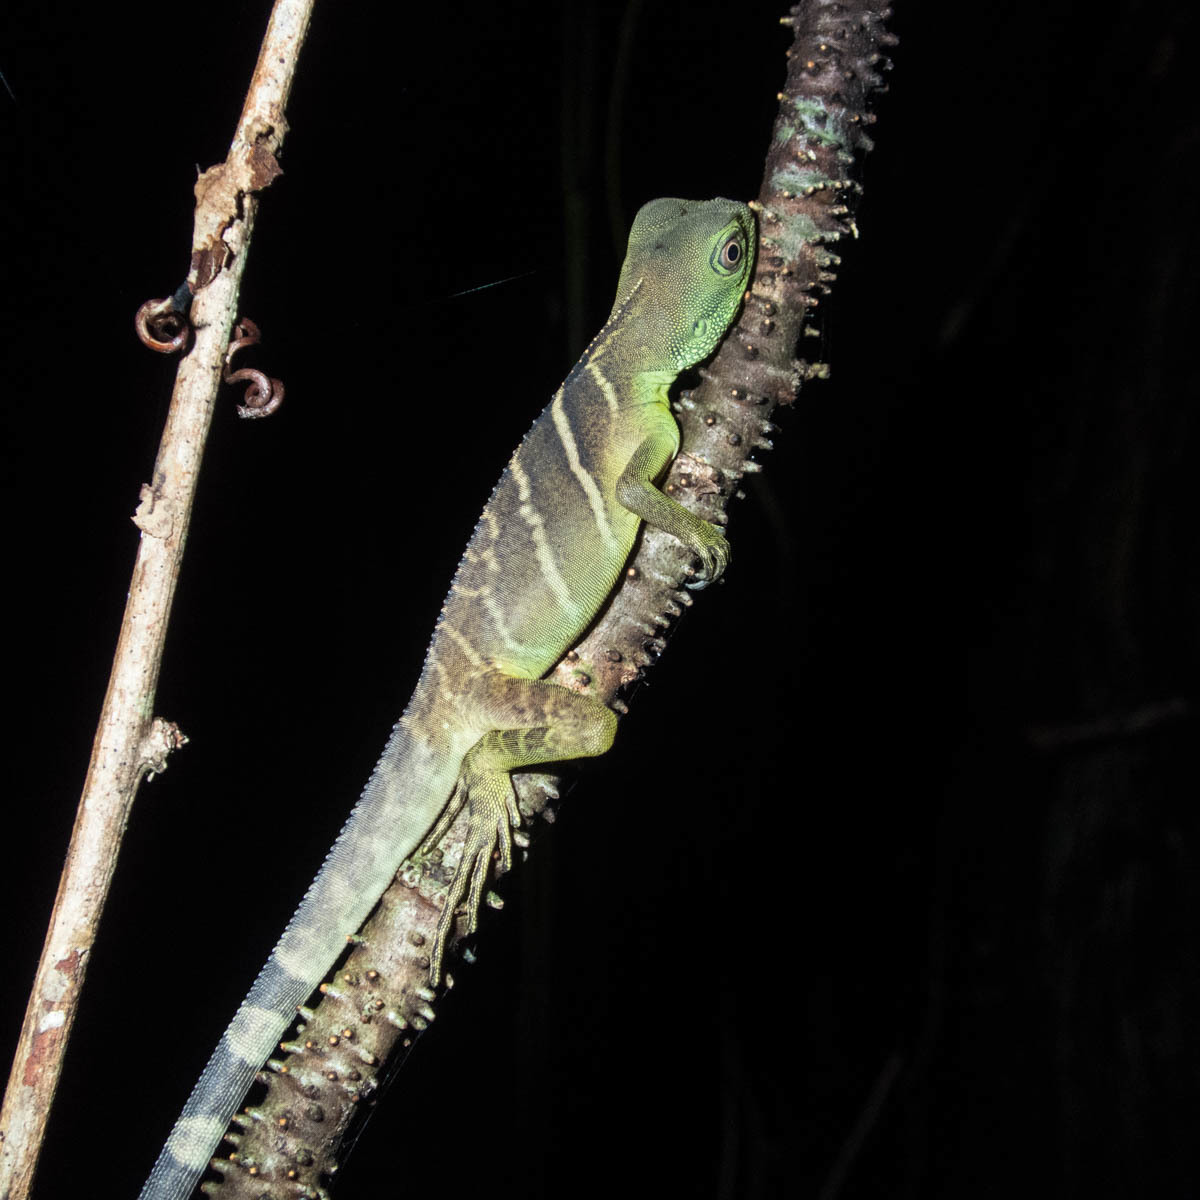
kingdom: Animalia
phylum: Chordata
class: Squamata
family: Agamidae
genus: Physignathus
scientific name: Physignathus cocincinus
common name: Asian water dragon
